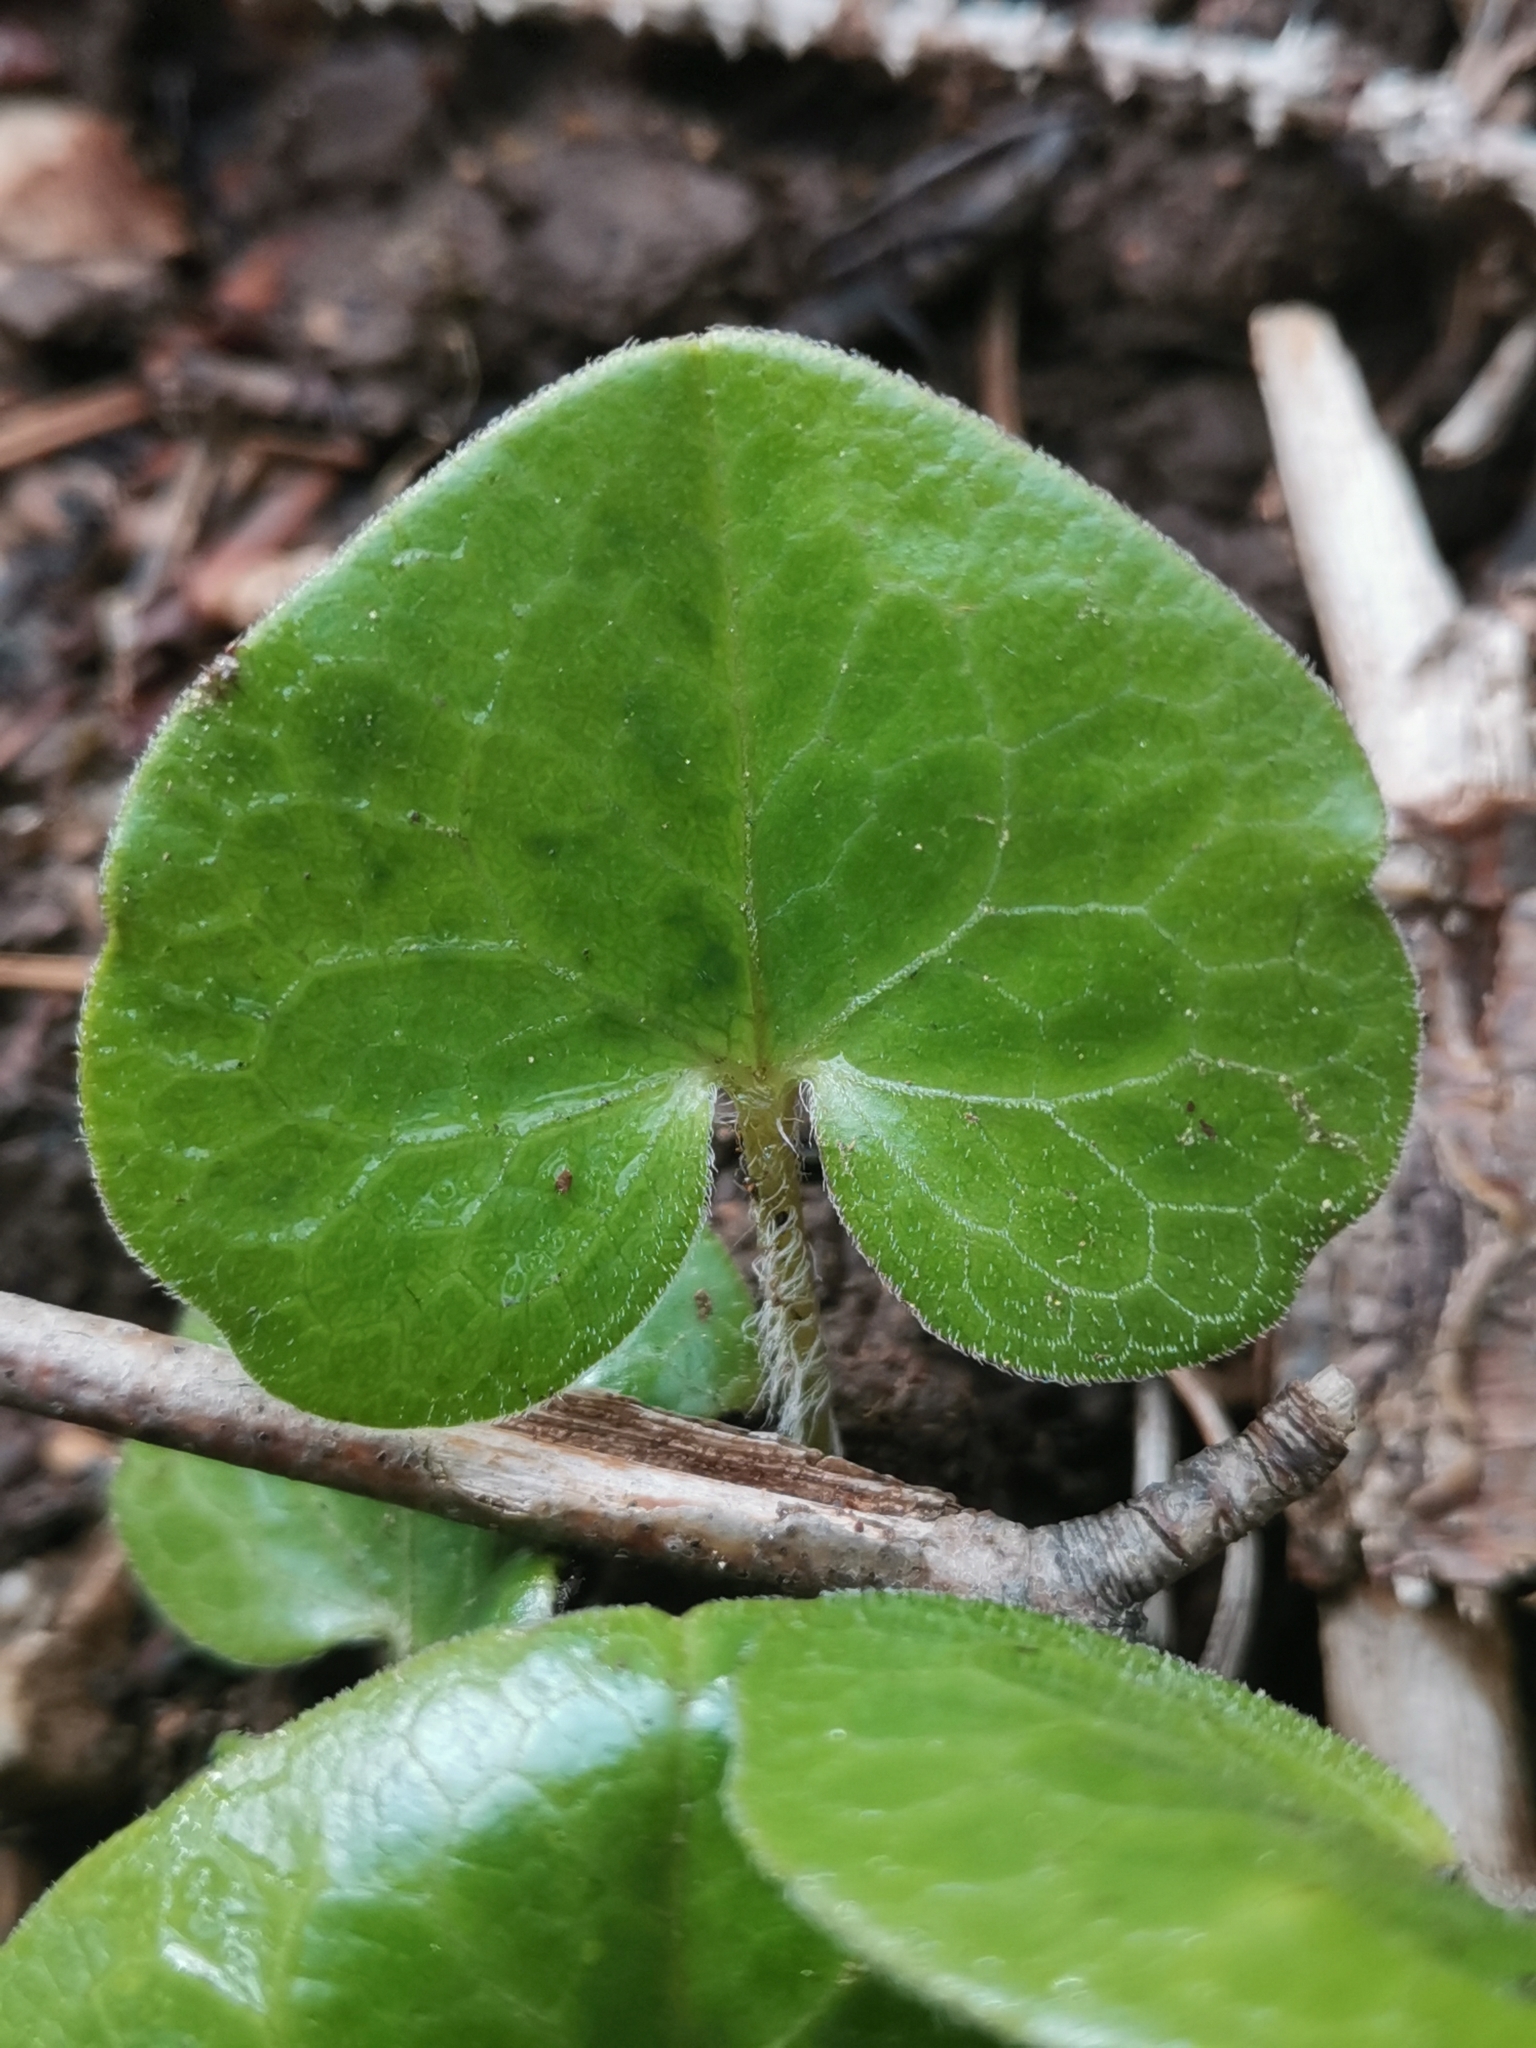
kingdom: Plantae
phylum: Tracheophyta
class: Magnoliopsida
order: Piperales
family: Aristolochiaceae
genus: Asarum
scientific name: Asarum europaeum
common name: Asarabacca
